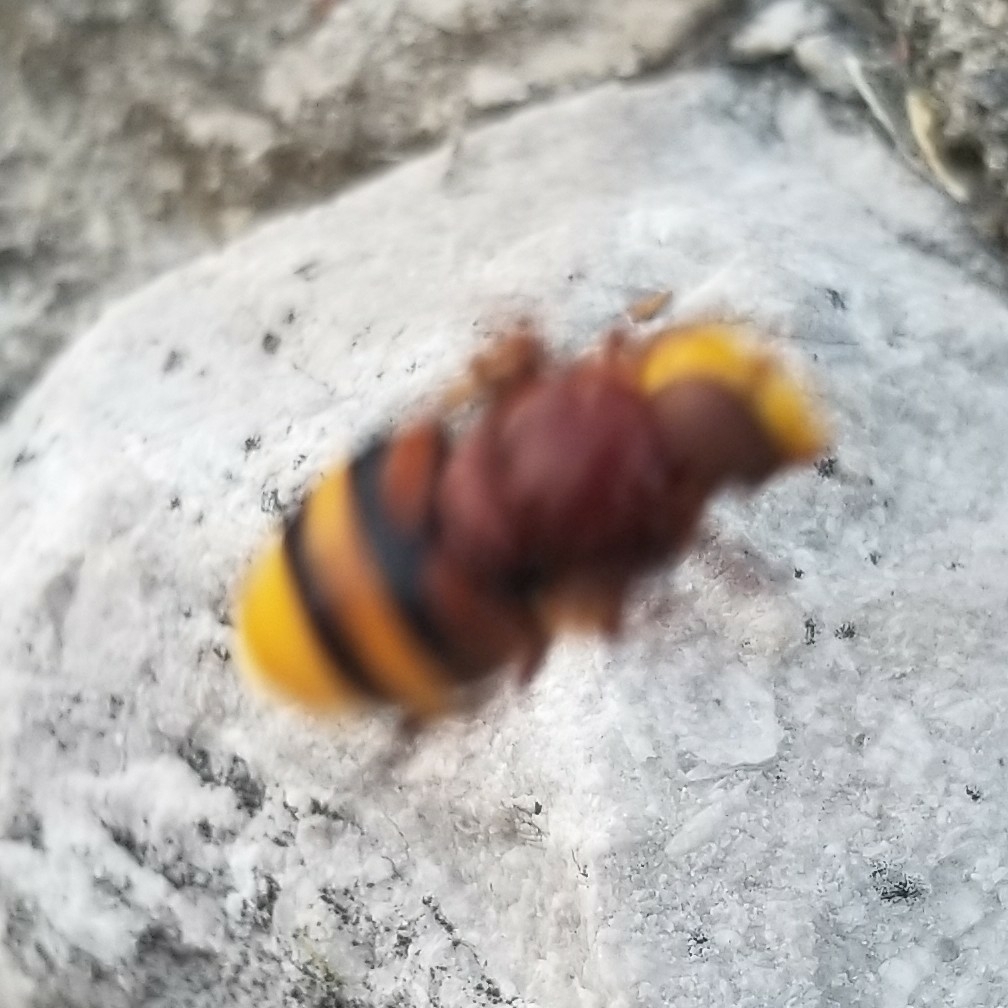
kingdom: Animalia
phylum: Arthropoda
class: Insecta
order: Diptera
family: Syrphidae
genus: Volucella
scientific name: Volucella zonaria
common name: Hornet hoverfly
